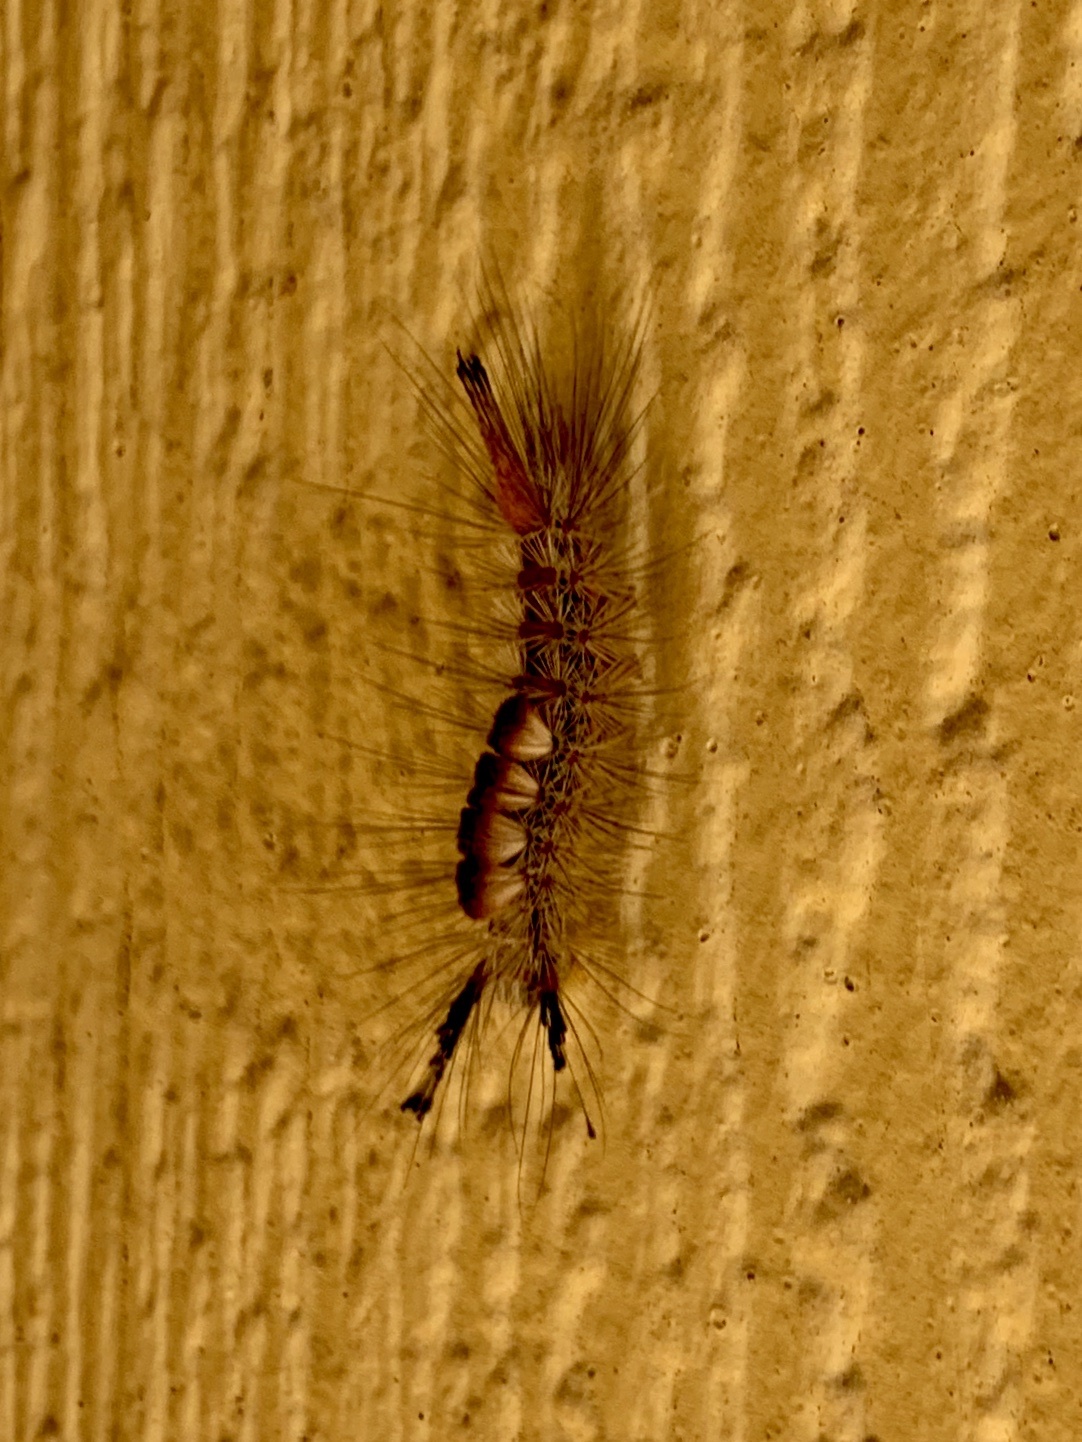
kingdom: Animalia
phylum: Arthropoda
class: Insecta
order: Lepidoptera
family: Erebidae
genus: Orgyia
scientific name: Orgyia pseudotsugata
